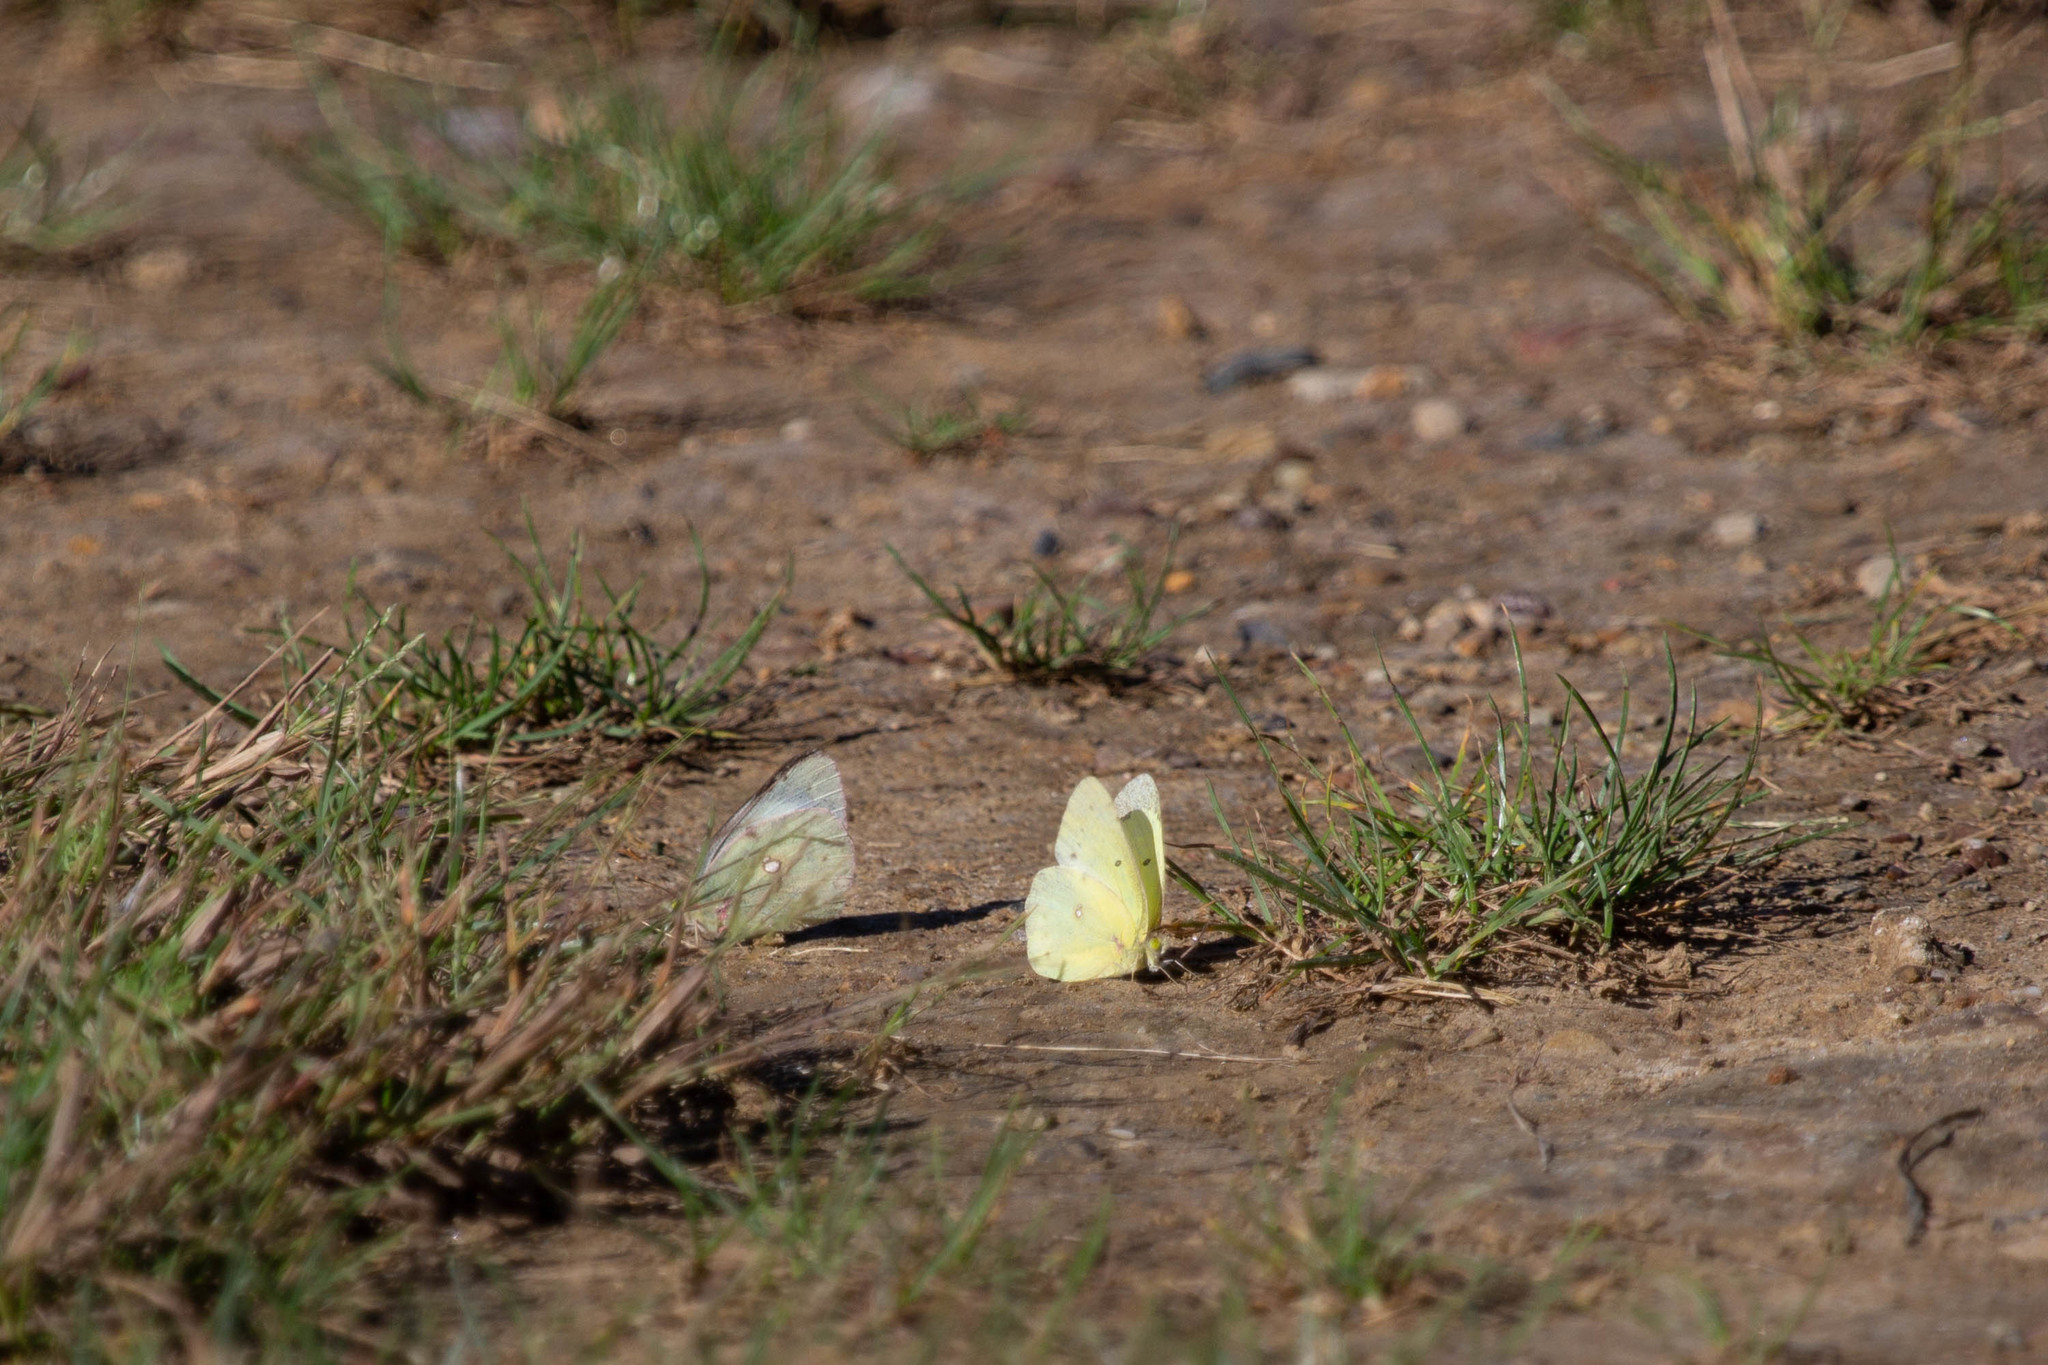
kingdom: Animalia
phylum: Arthropoda
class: Insecta
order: Lepidoptera
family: Pieridae
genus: Colias
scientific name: Colias philodice
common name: Clouded sulphur
